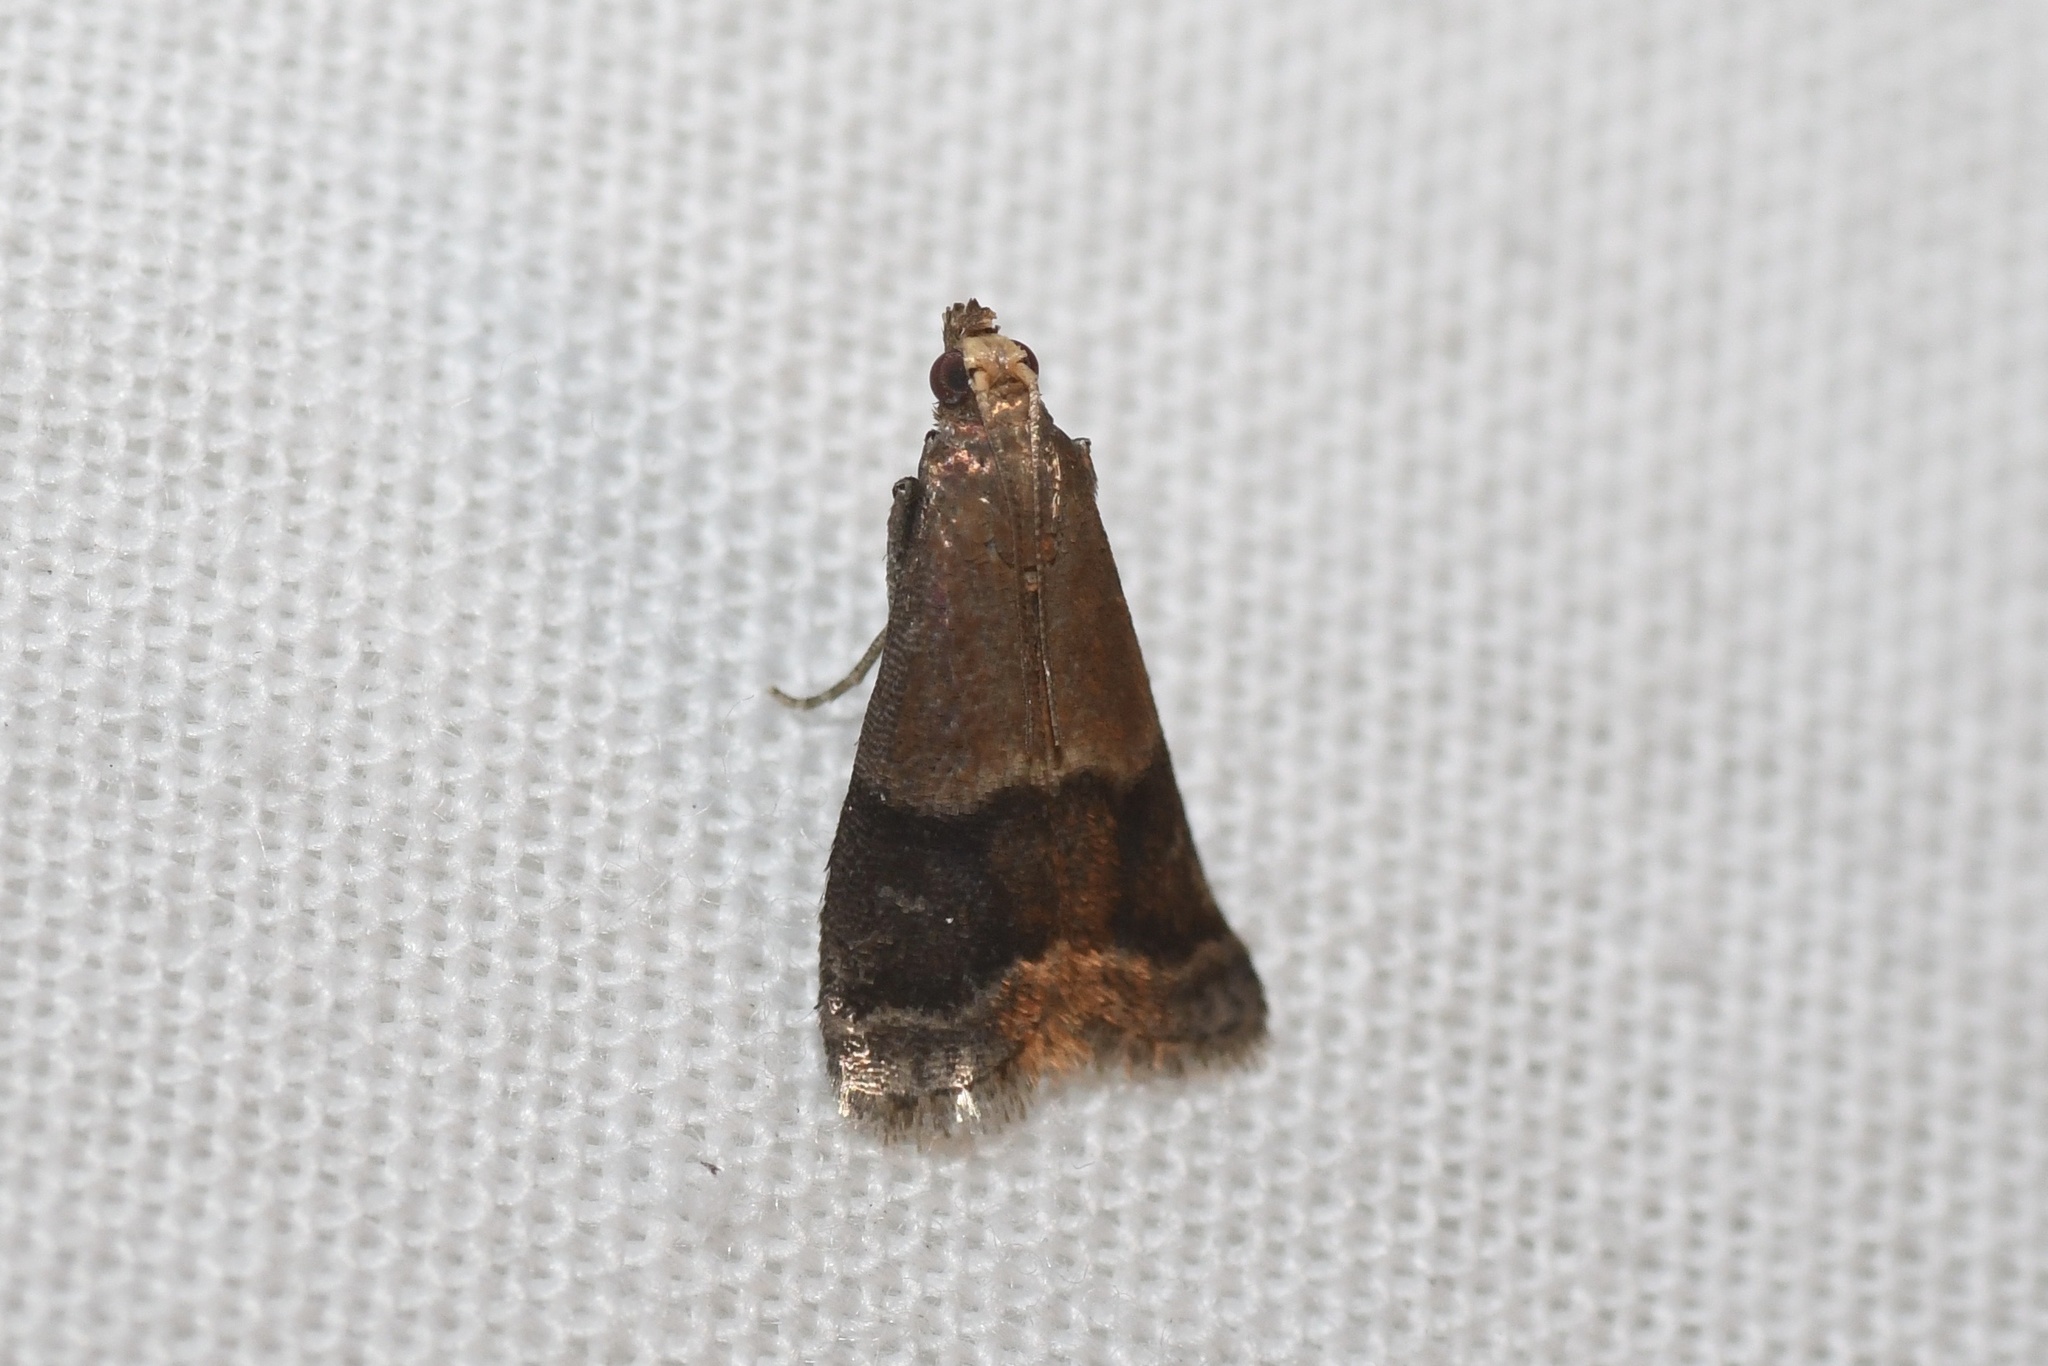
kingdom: Animalia
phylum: Arthropoda
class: Insecta
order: Lepidoptera
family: Pyralidae
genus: Eulogia
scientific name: Eulogia ochrifrontella
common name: Broad-banded eulogia moth
